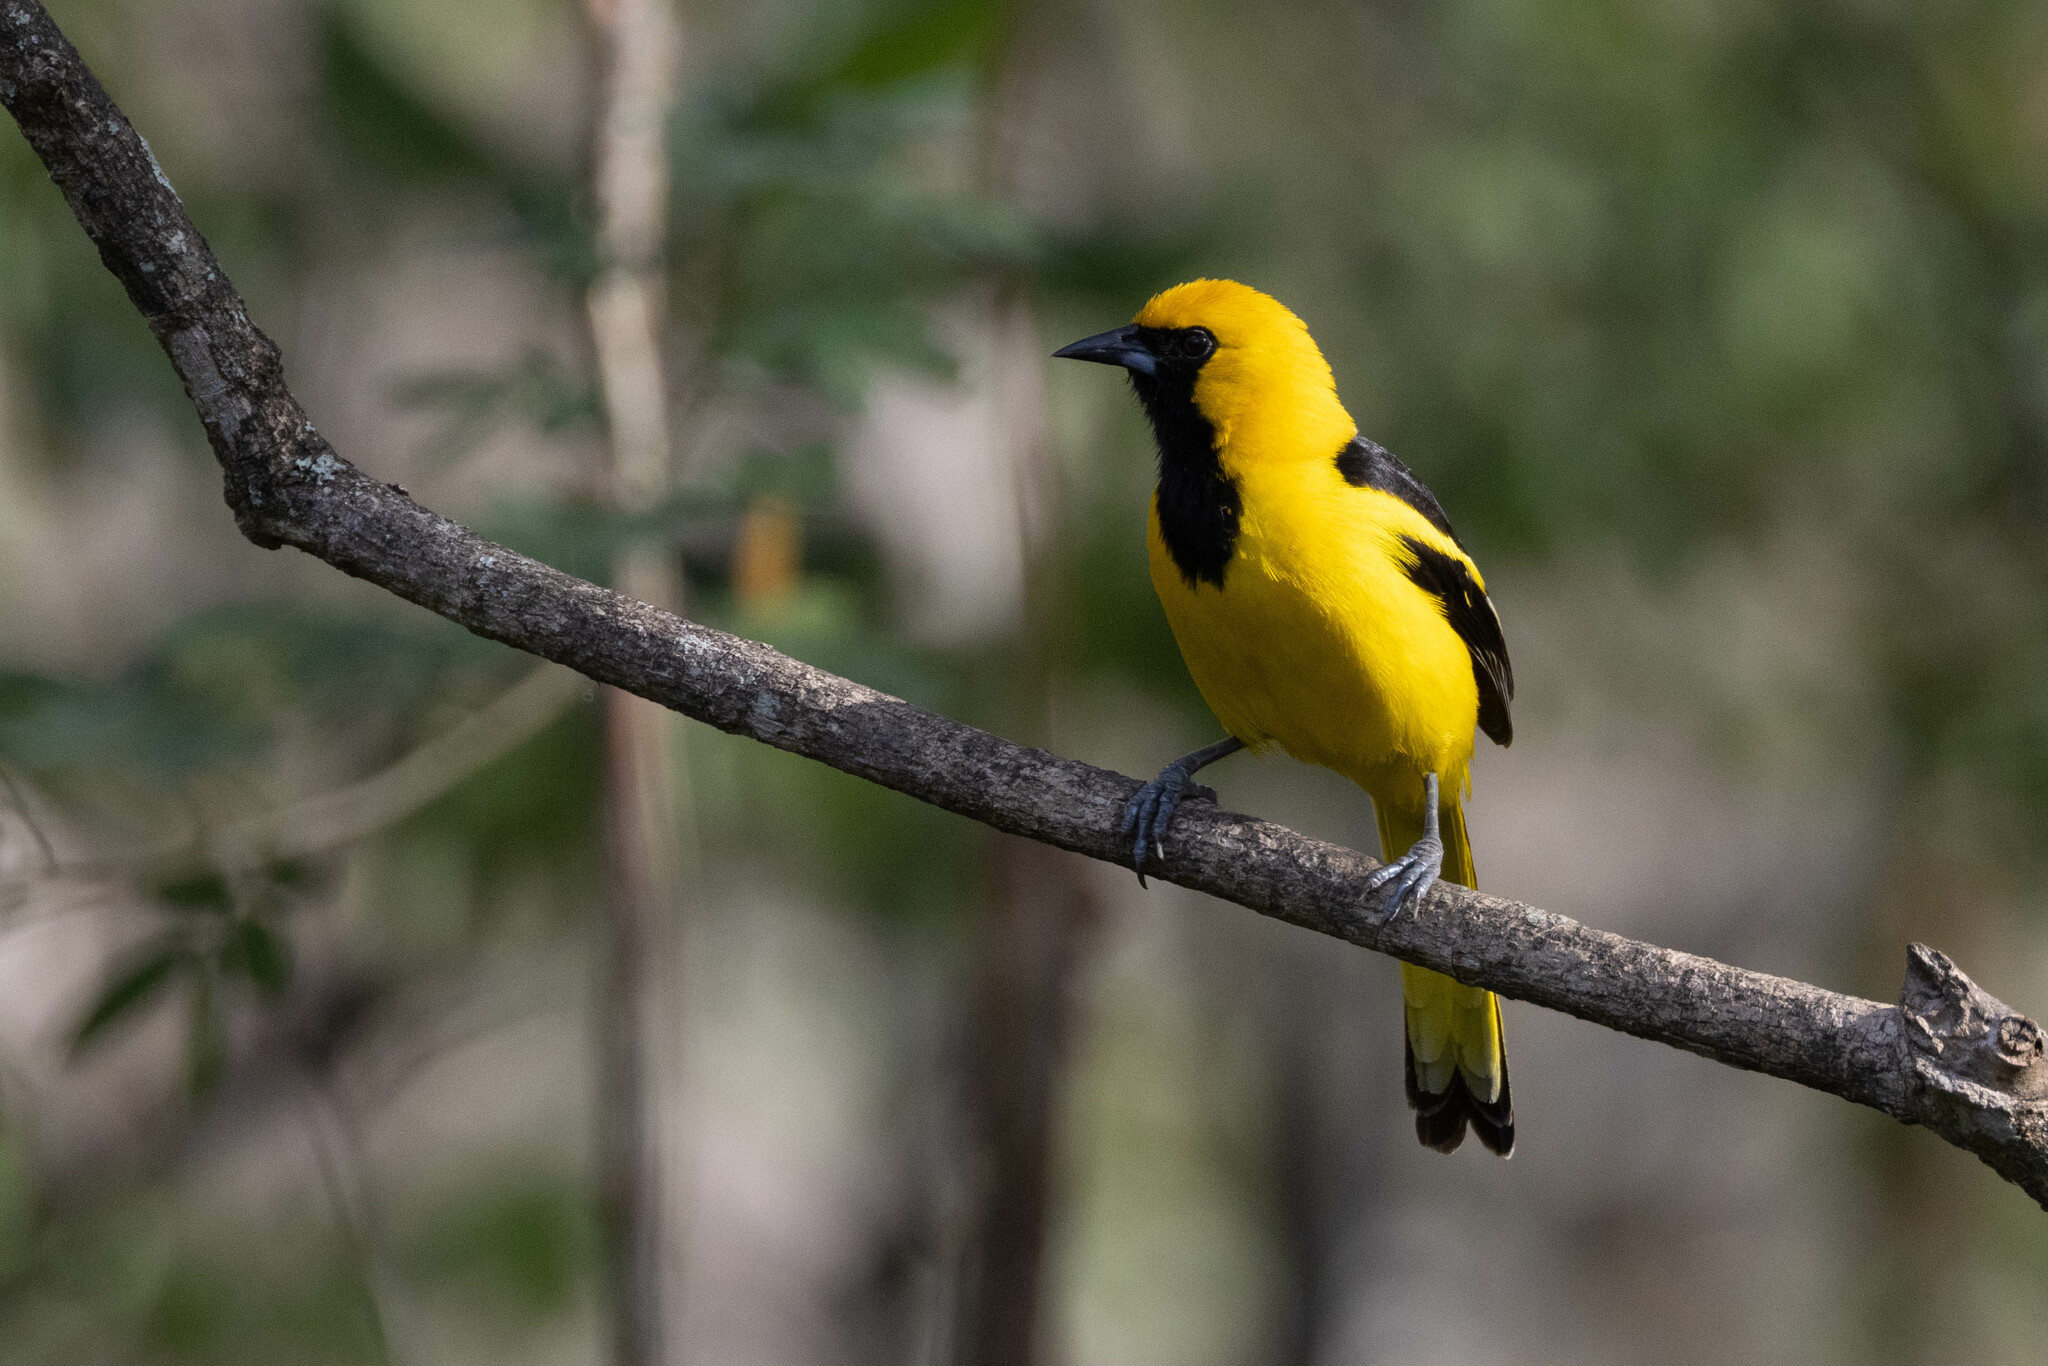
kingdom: Animalia
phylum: Chordata
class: Aves
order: Passeriformes
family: Icteridae
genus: Icterus
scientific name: Icterus mesomelas
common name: Yellow-tailed oriole
